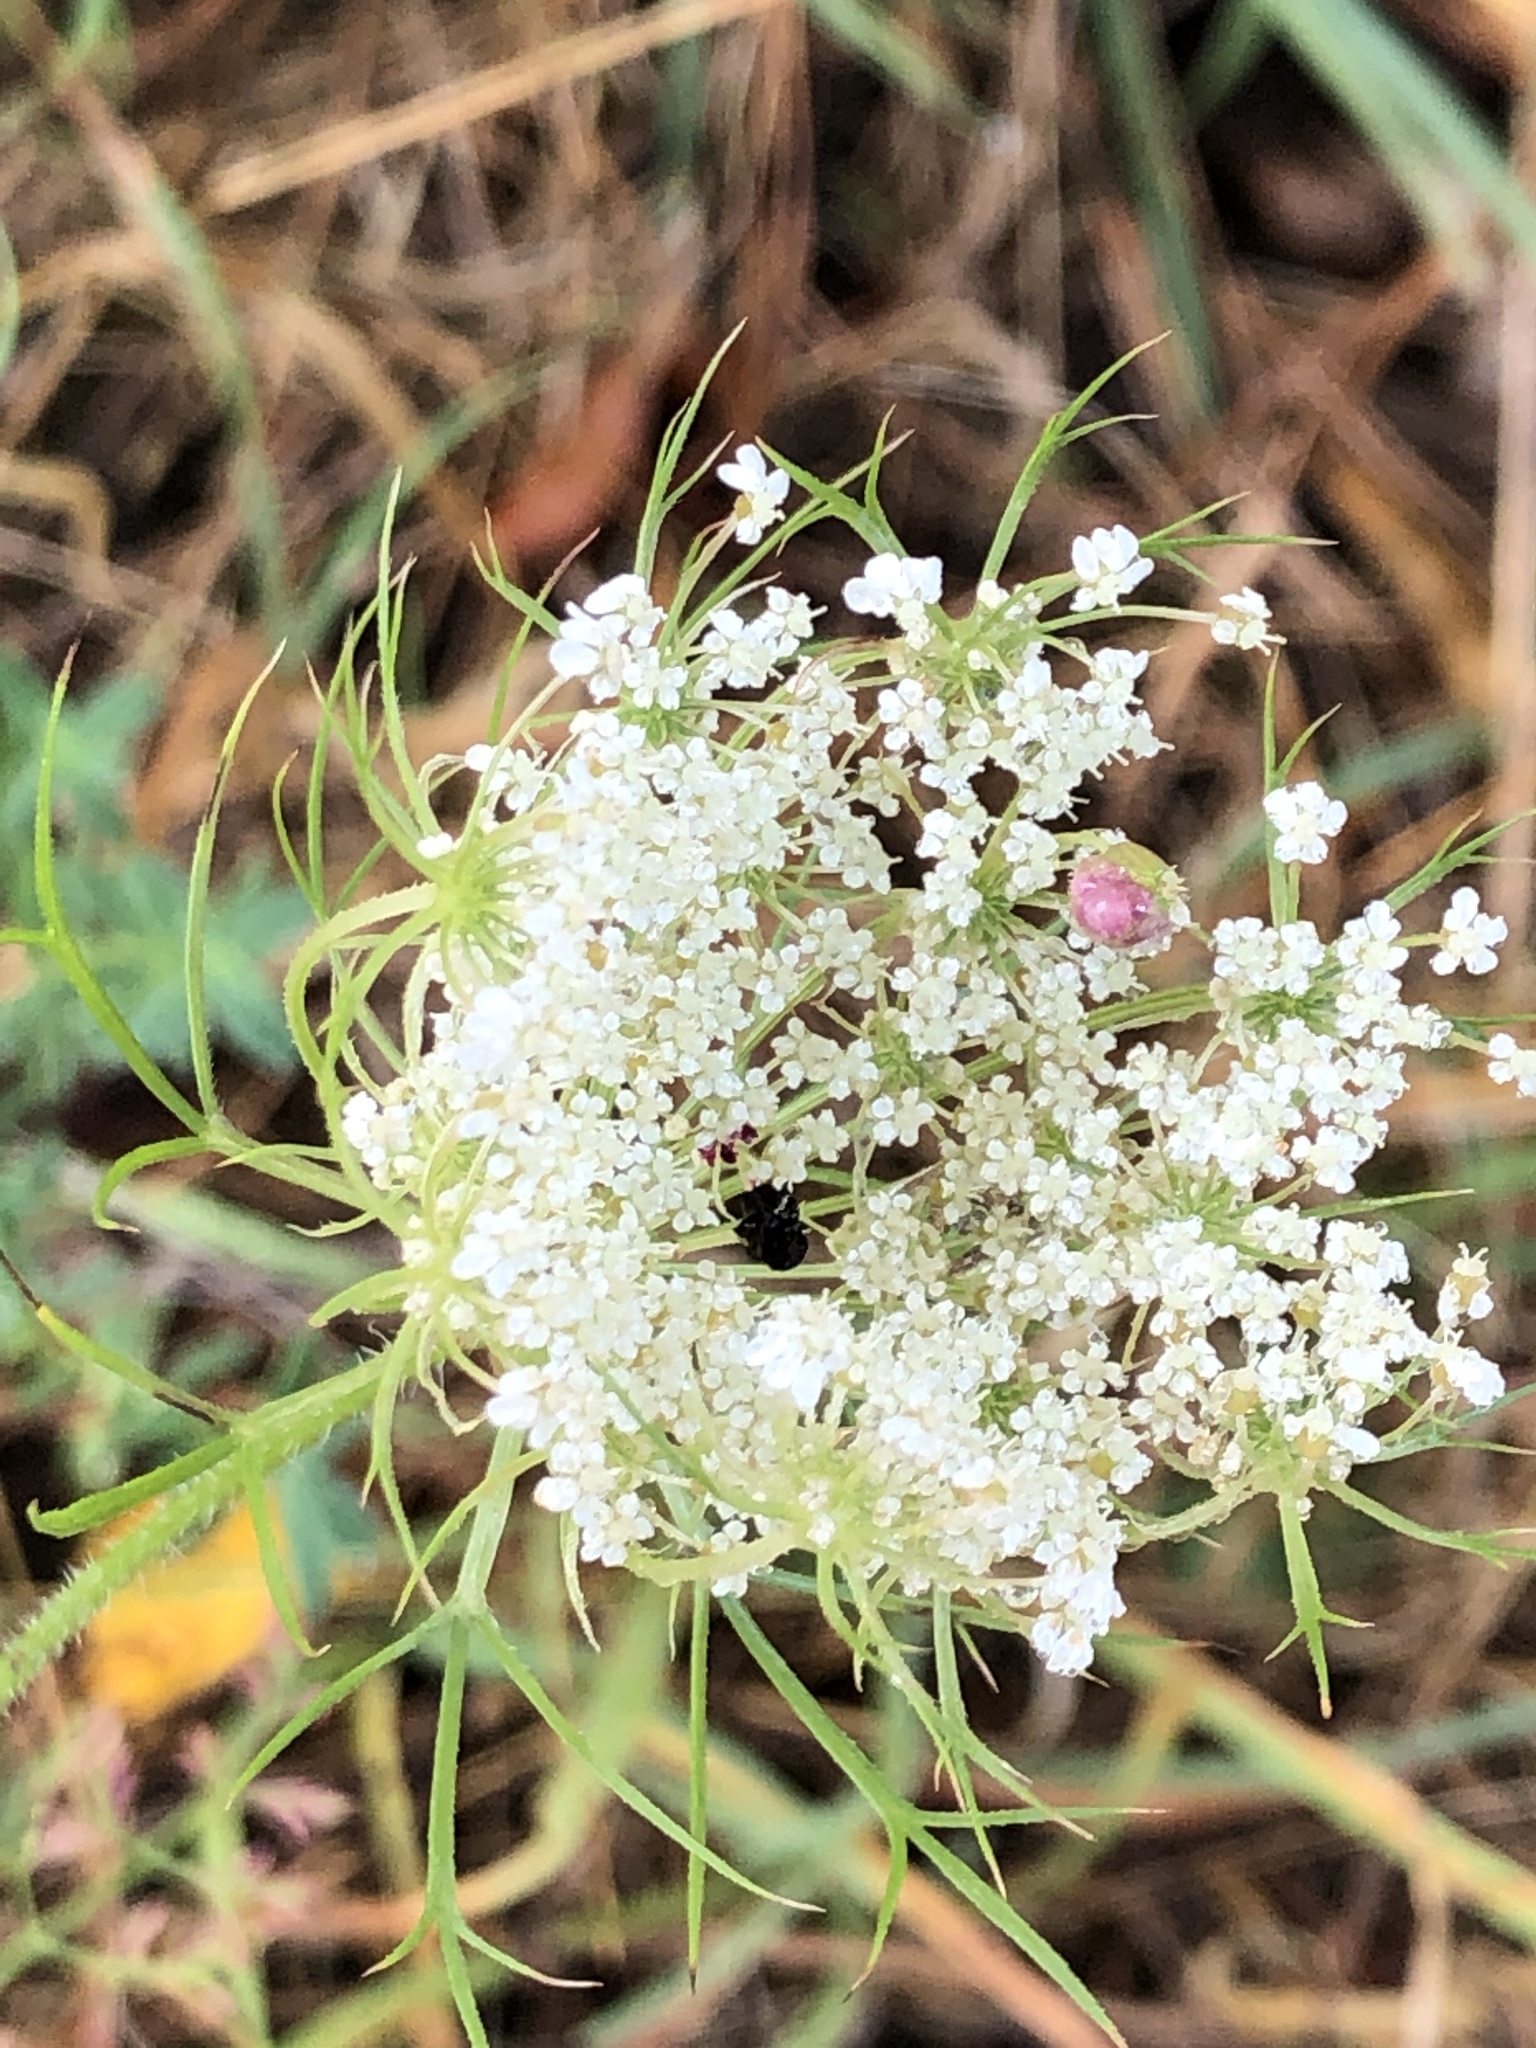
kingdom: Plantae
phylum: Tracheophyta
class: Magnoliopsida
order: Apiales
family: Apiaceae
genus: Daucus
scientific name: Daucus carota
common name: Wild carrot
